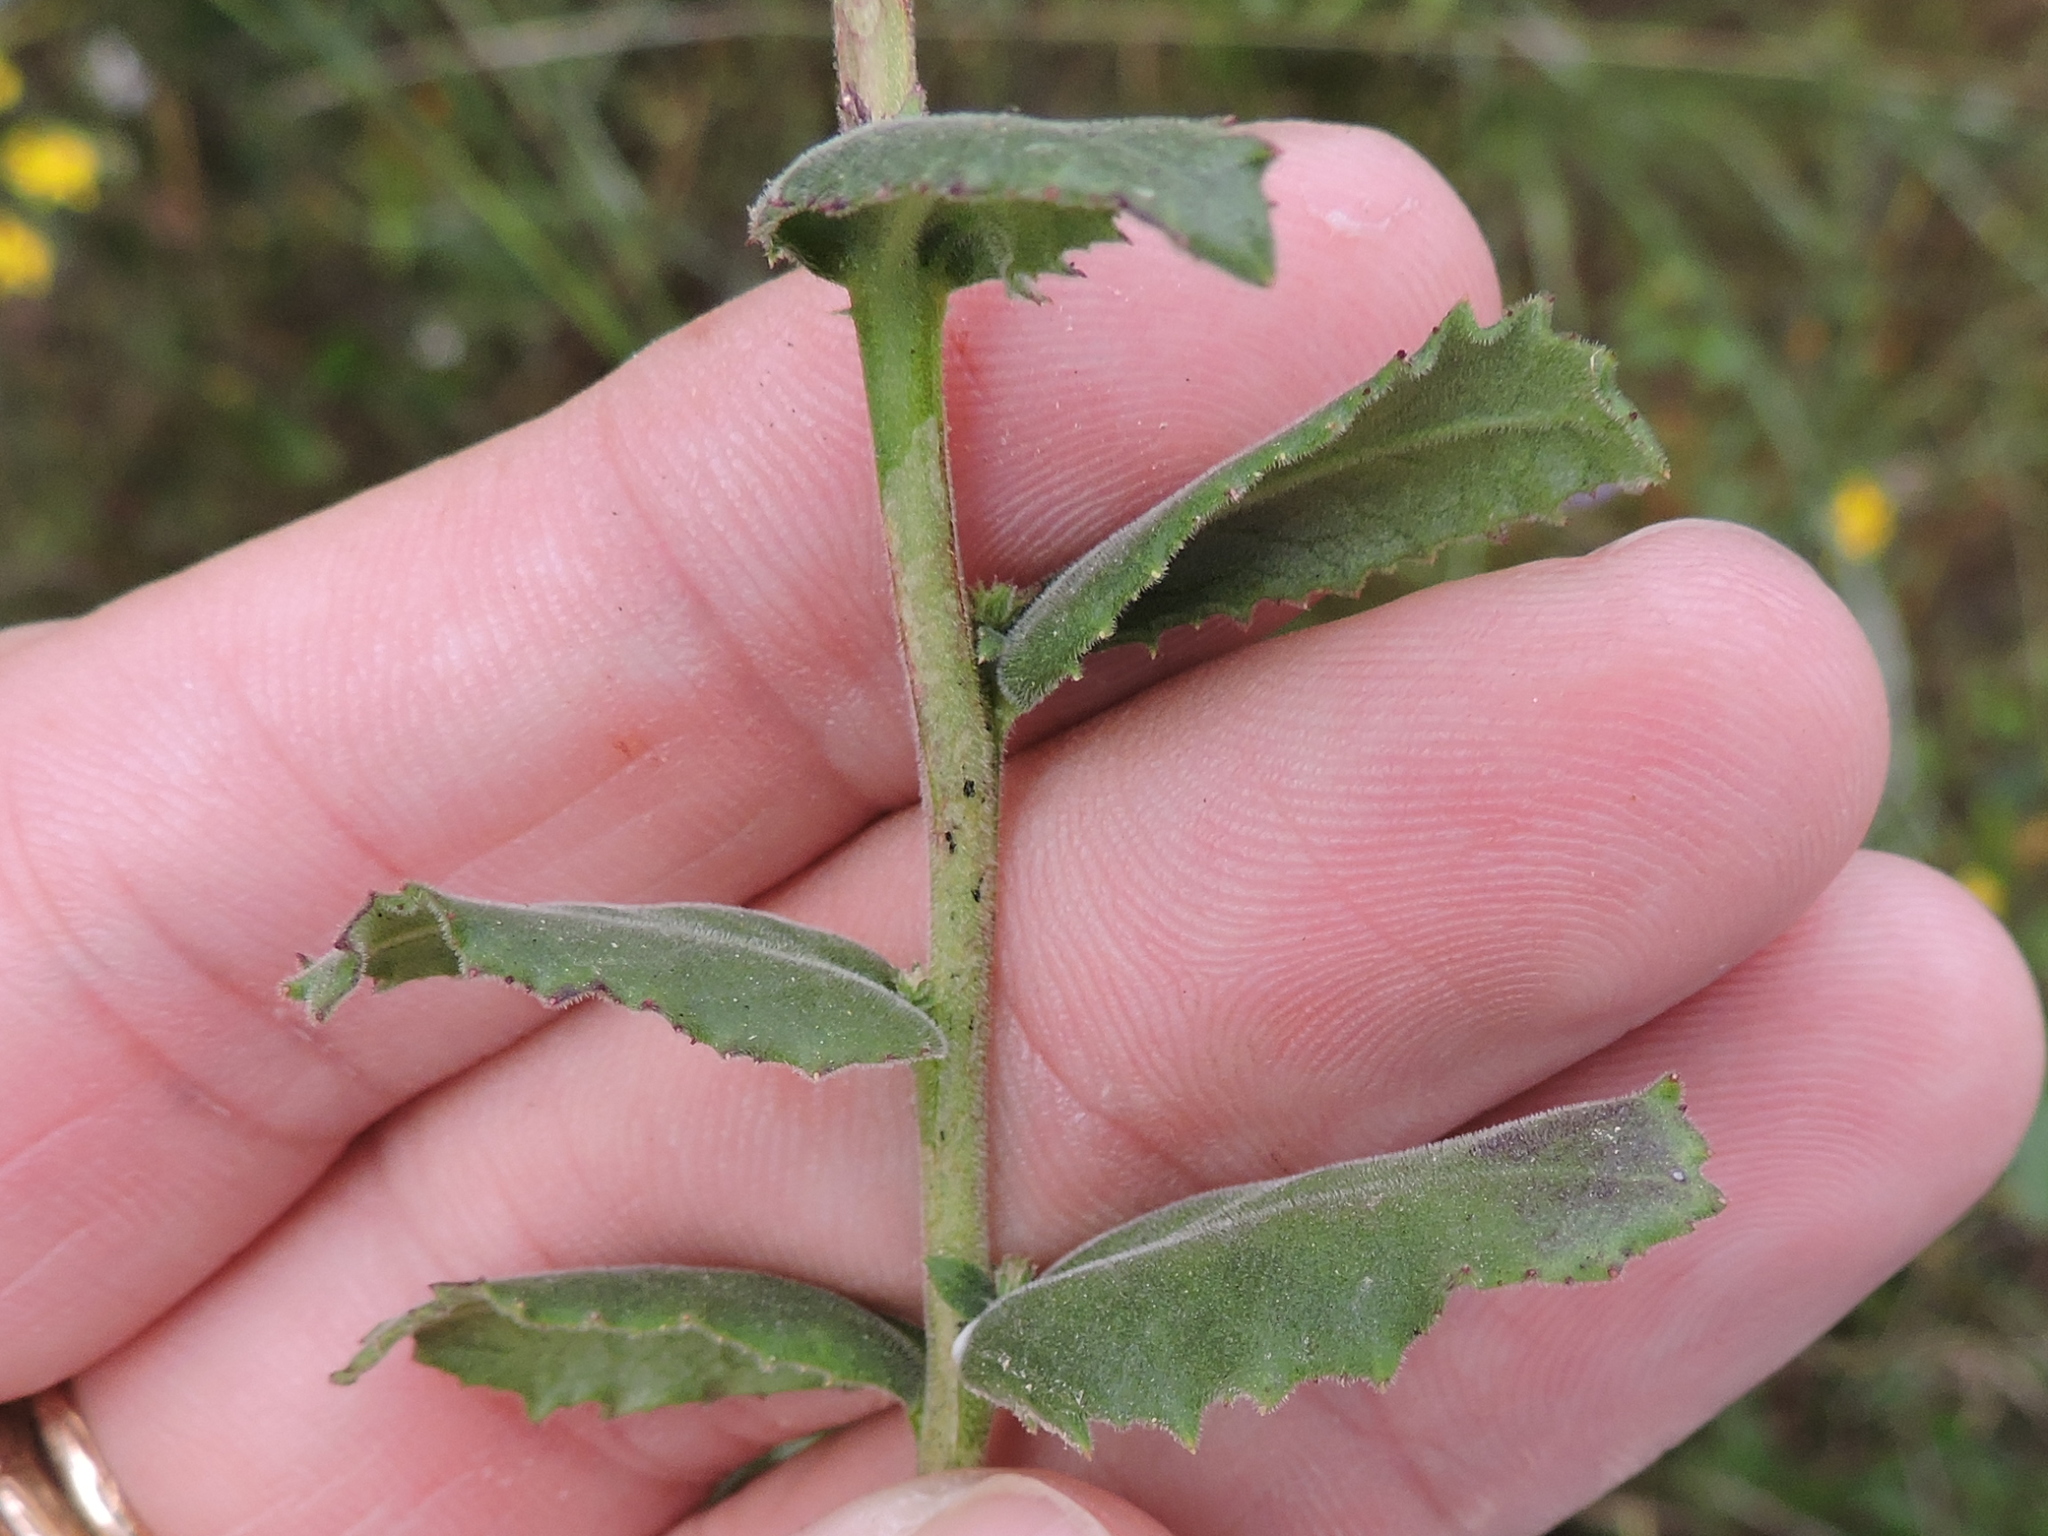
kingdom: Plantae
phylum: Tracheophyta
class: Magnoliopsida
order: Asterales
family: Campanulaceae
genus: Lobelia
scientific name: Lobelia puberula
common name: Purple dewdrop
